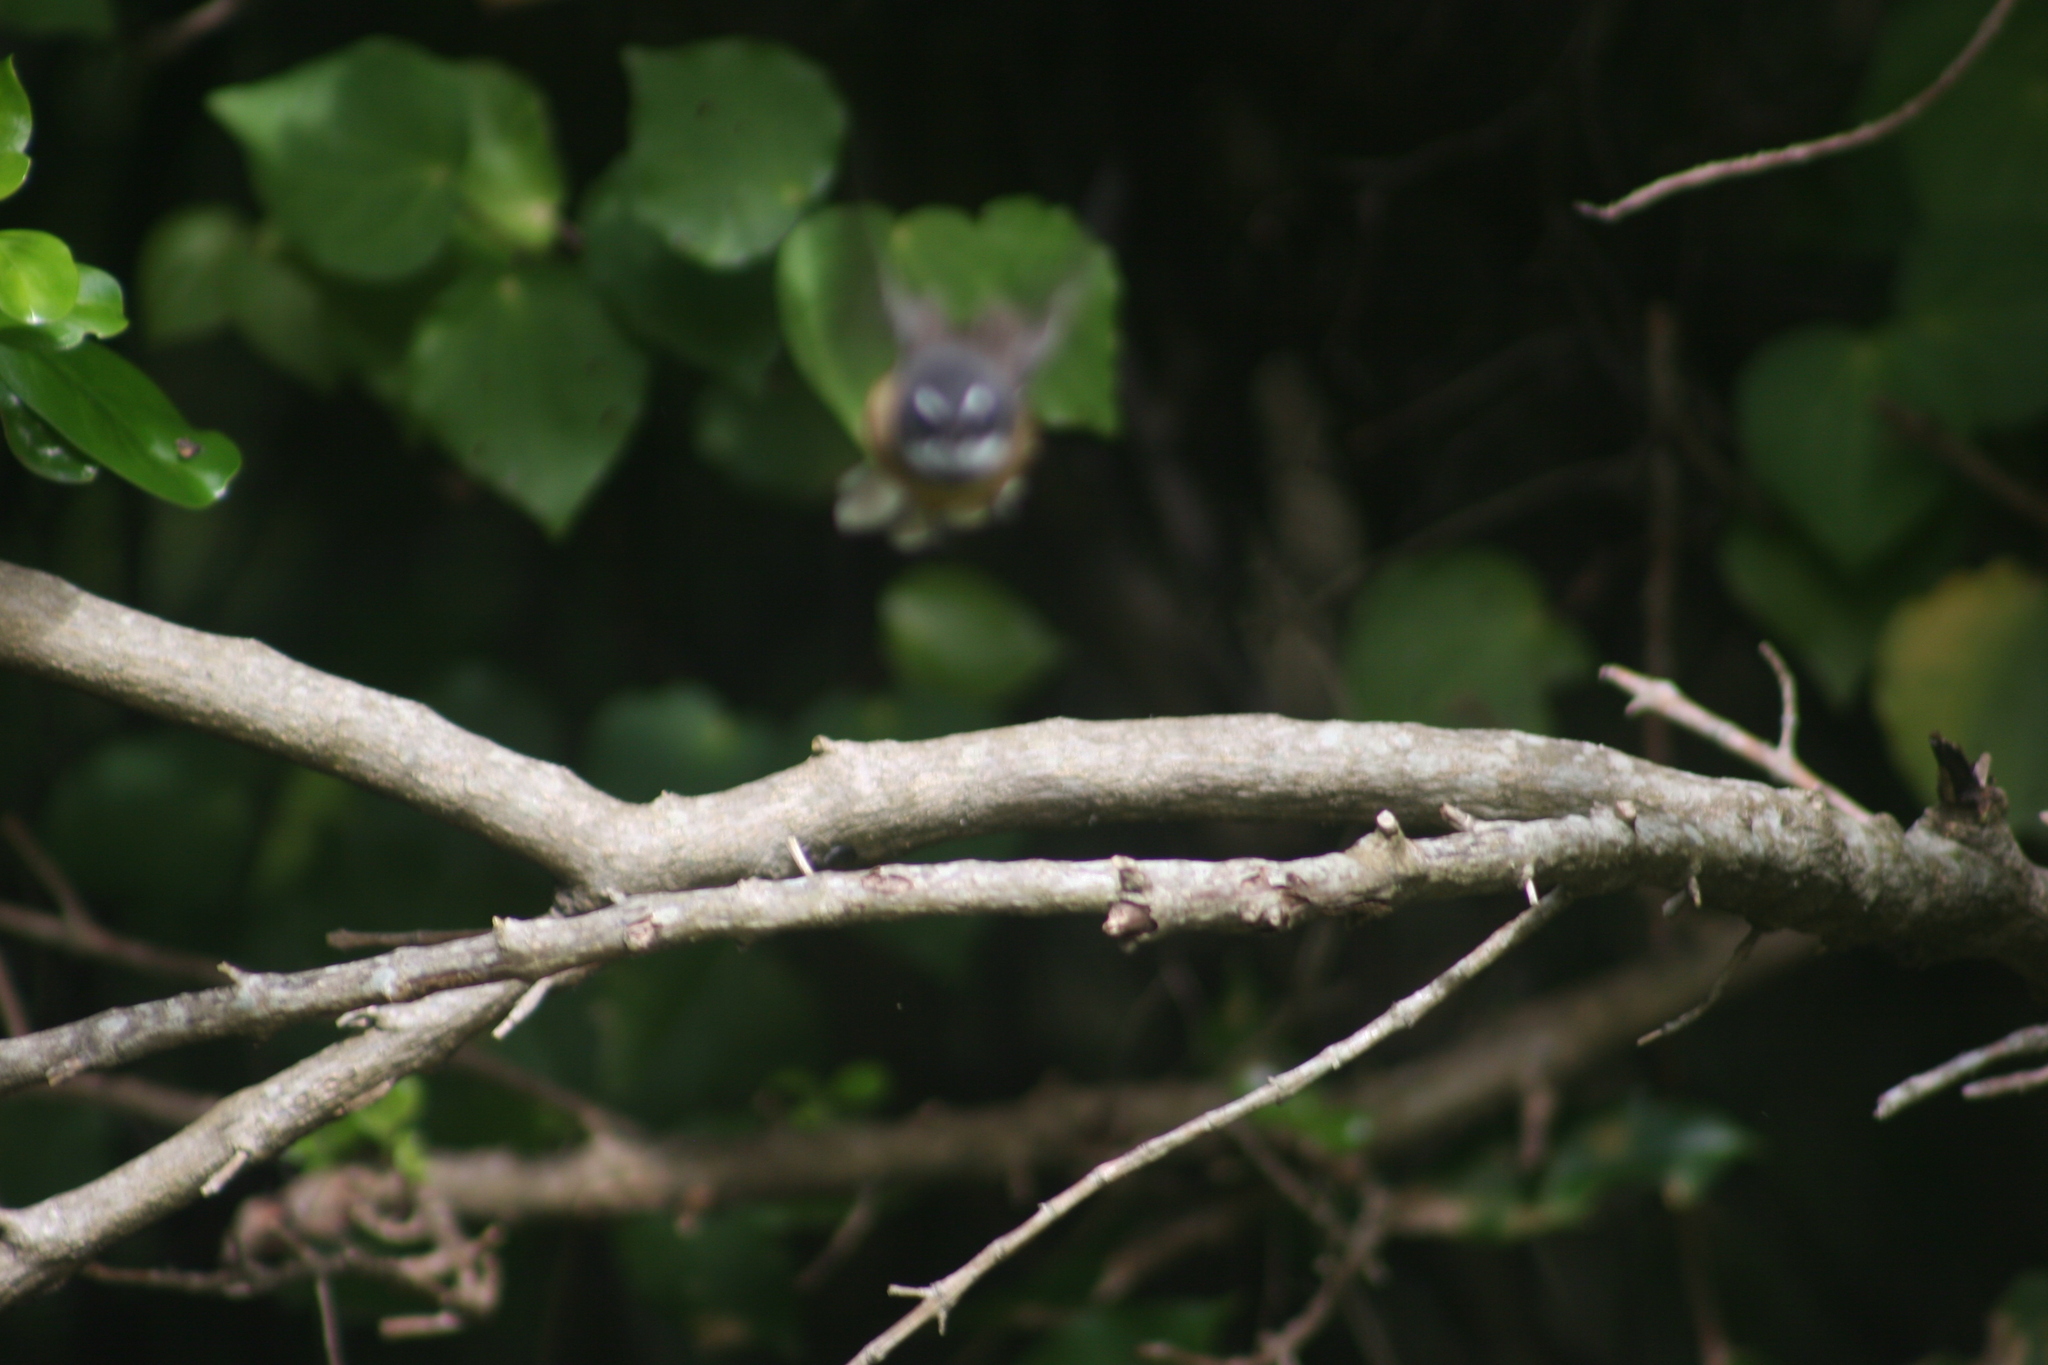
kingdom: Animalia
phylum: Chordata
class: Aves
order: Passeriformes
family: Rhipiduridae
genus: Rhipidura
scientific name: Rhipidura fuliginosa
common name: New zealand fantail
